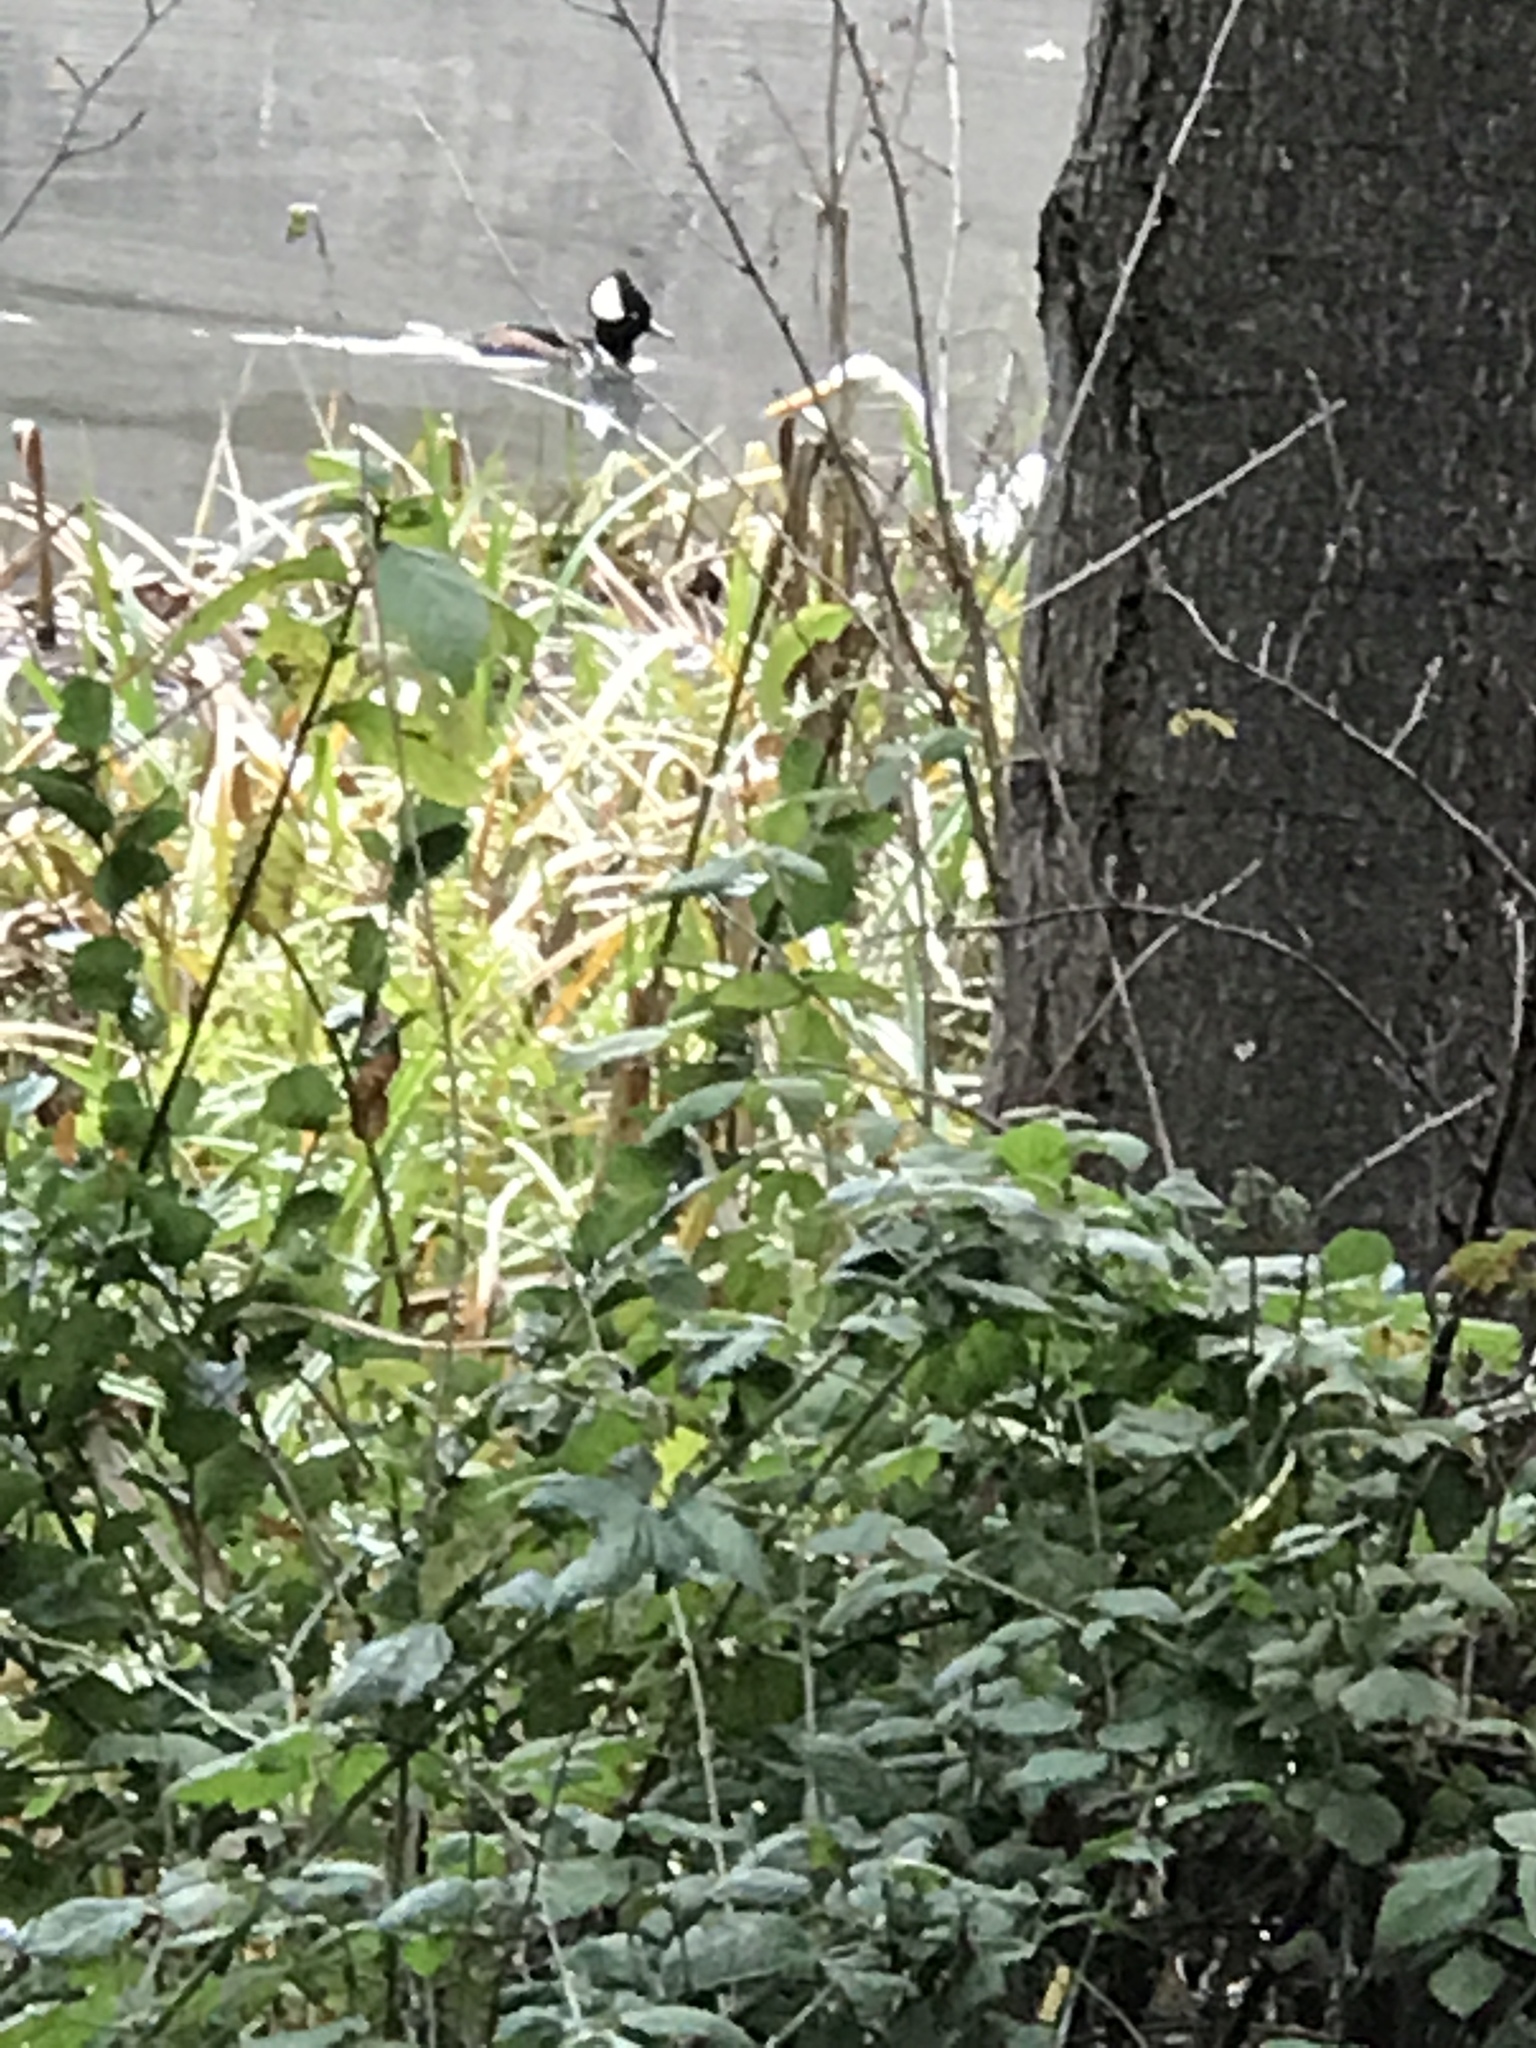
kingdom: Animalia
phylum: Chordata
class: Aves
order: Anseriformes
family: Anatidae
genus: Lophodytes
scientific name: Lophodytes cucullatus
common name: Hooded merganser
